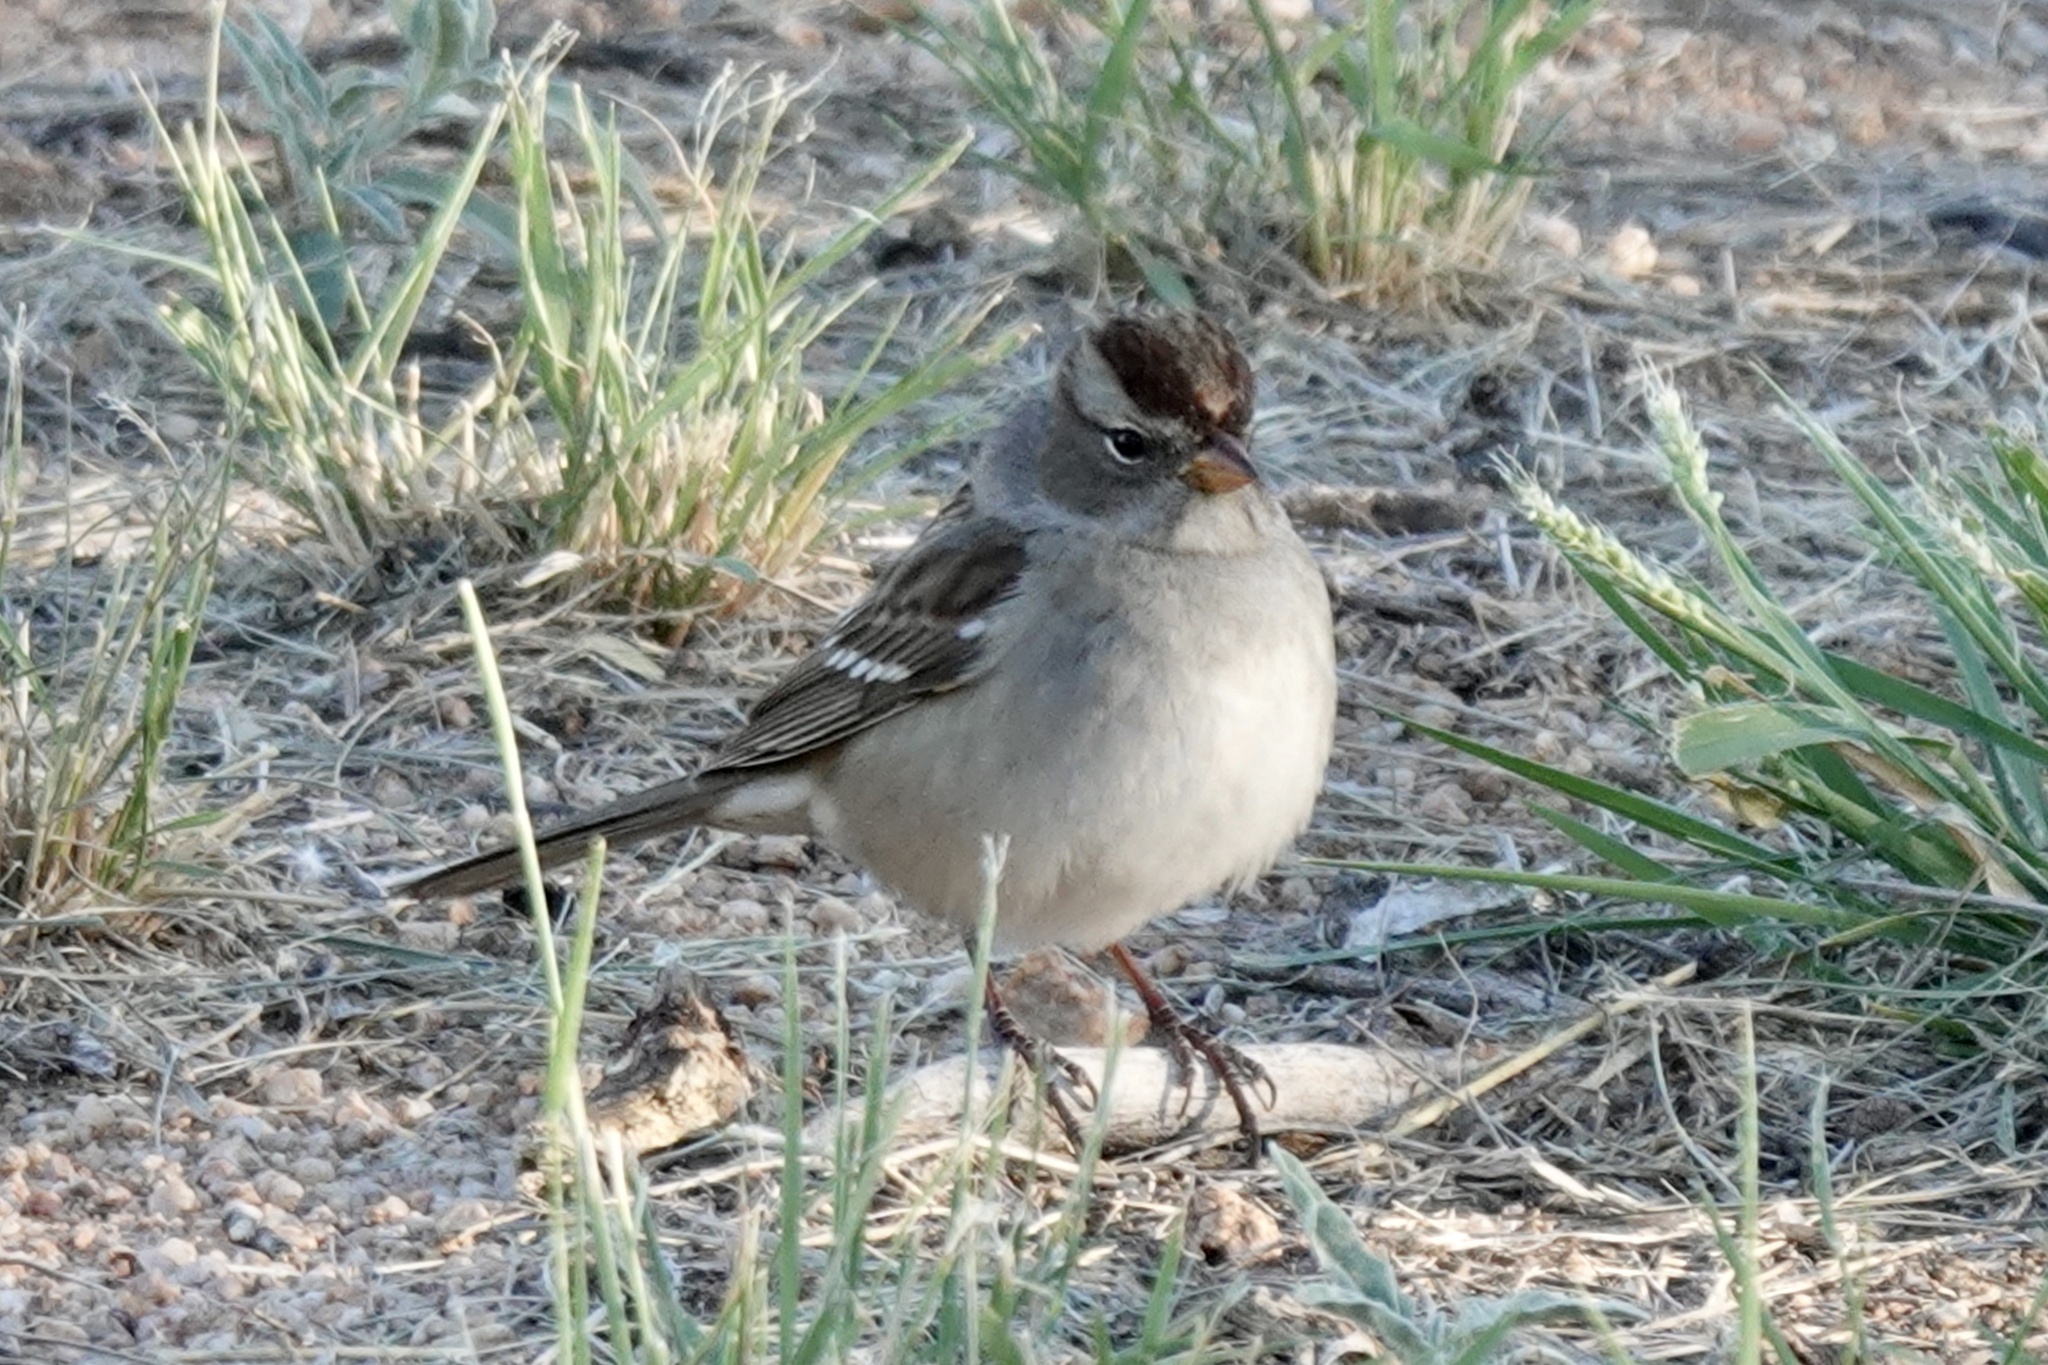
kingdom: Animalia
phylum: Chordata
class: Aves
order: Passeriformes
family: Passerellidae
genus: Zonotrichia
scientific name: Zonotrichia leucophrys
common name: White-crowned sparrow
